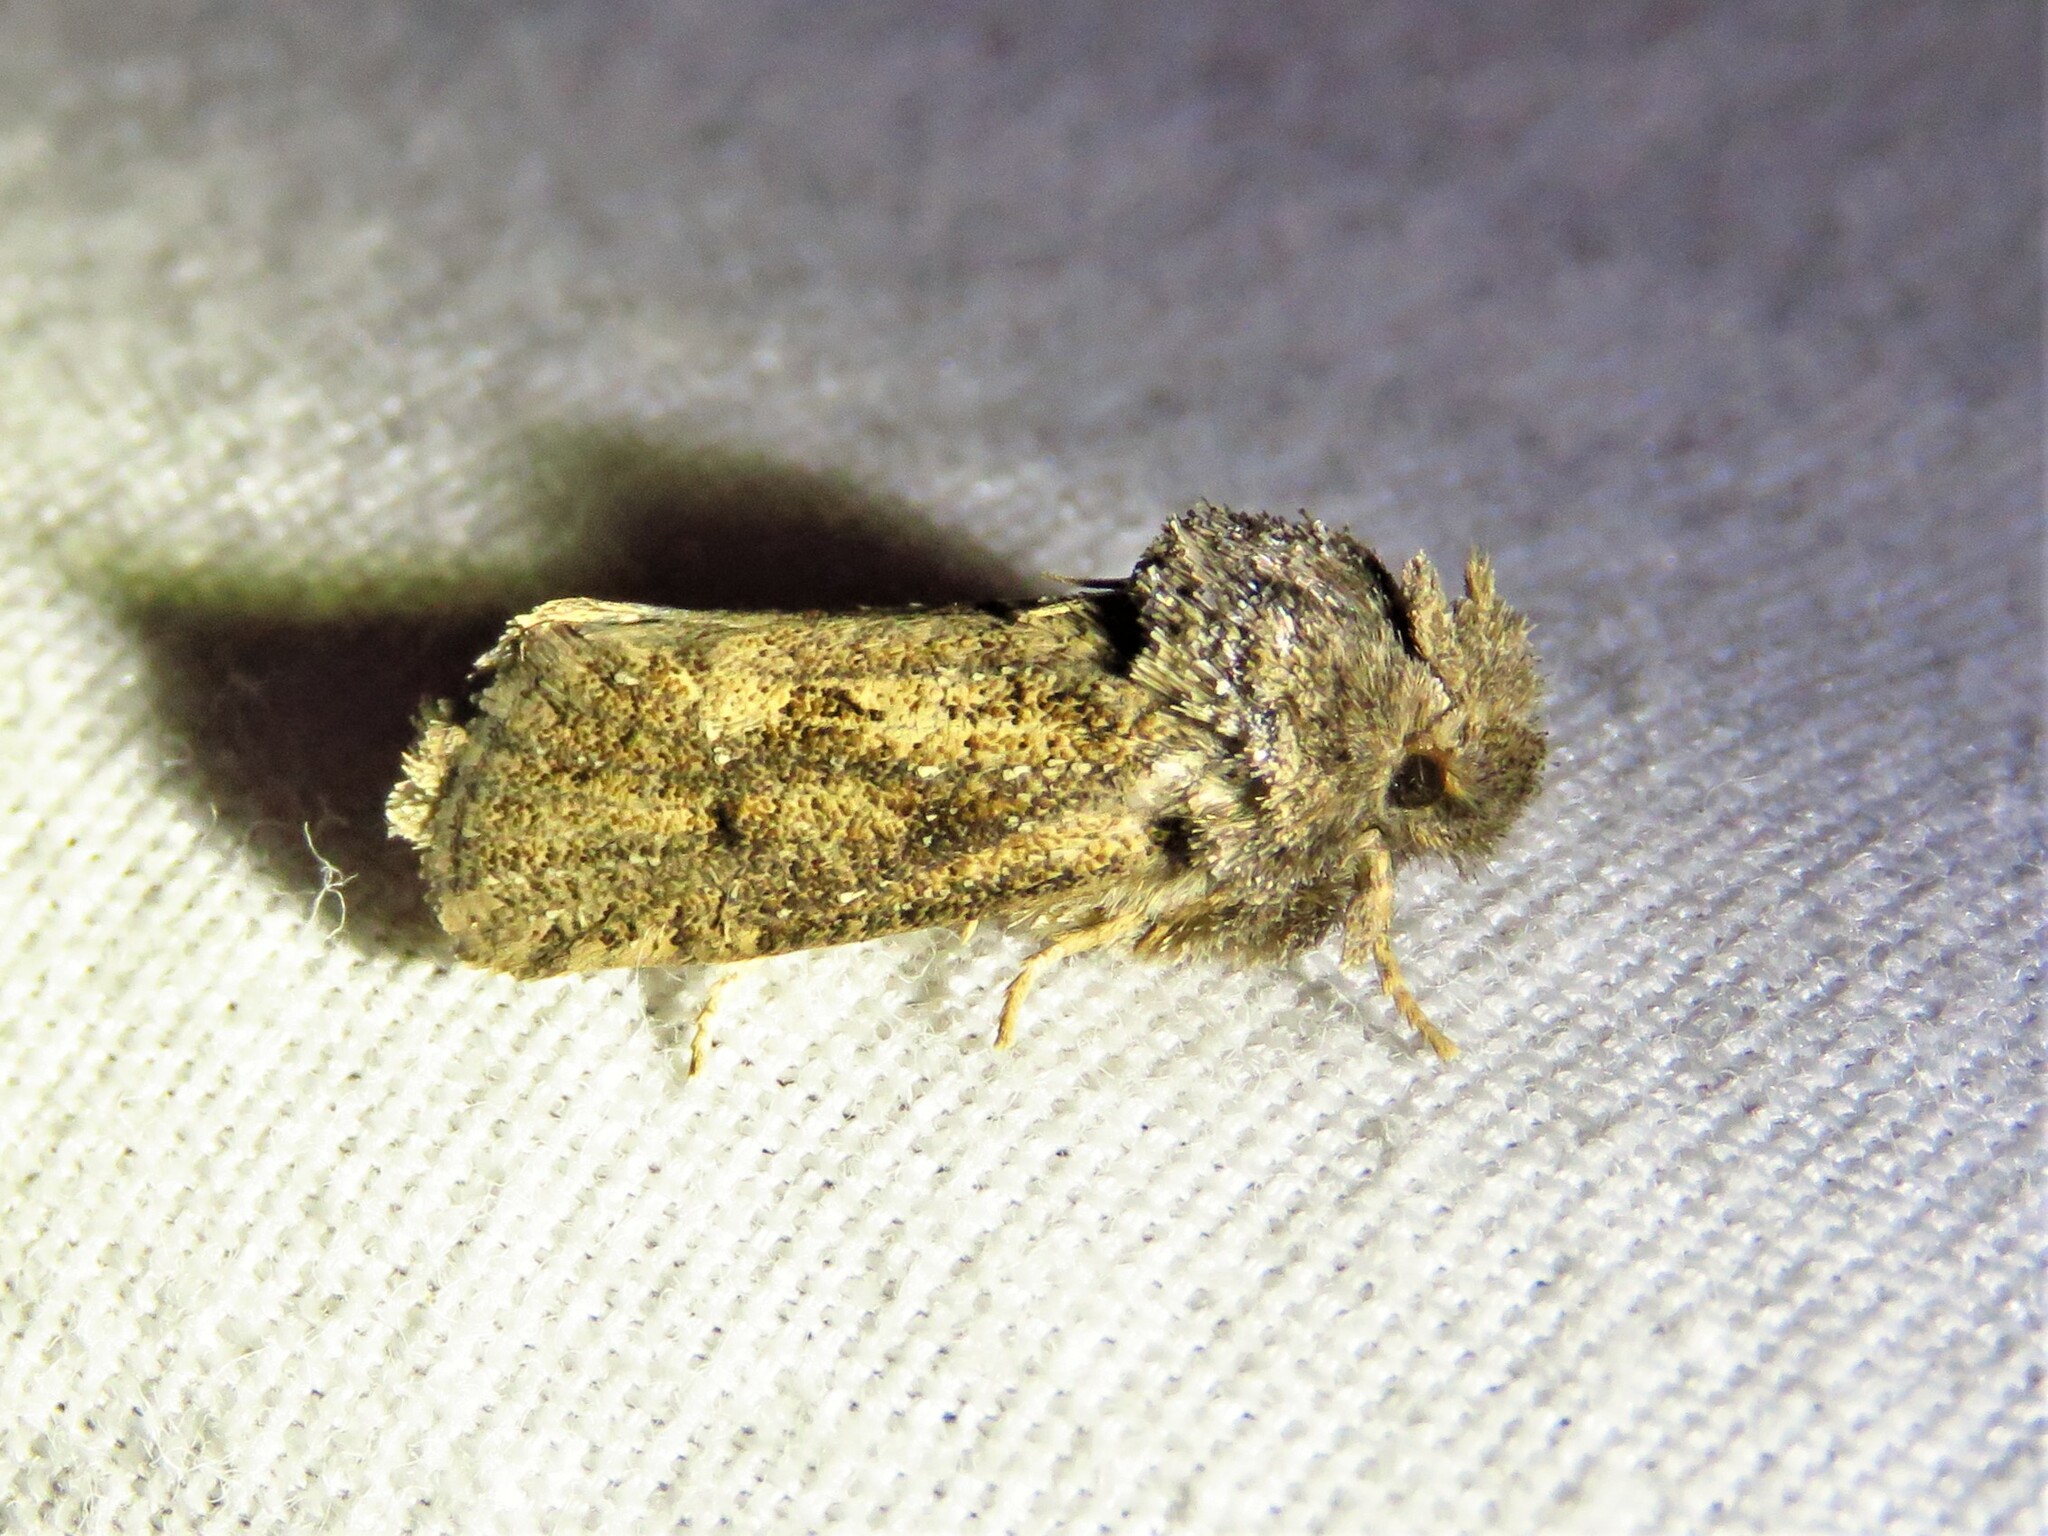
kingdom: Animalia
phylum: Arthropoda
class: Insecta
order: Lepidoptera
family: Tineidae
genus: Acrolophus
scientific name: Acrolophus arcanella
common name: Arcane grass tubeworm moth
